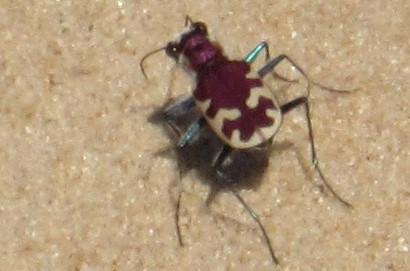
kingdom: Animalia
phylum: Arthropoda
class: Insecta
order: Coleoptera
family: Carabidae
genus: Cicindela
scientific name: Cicindela formosa
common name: Big sand tiger beetle
